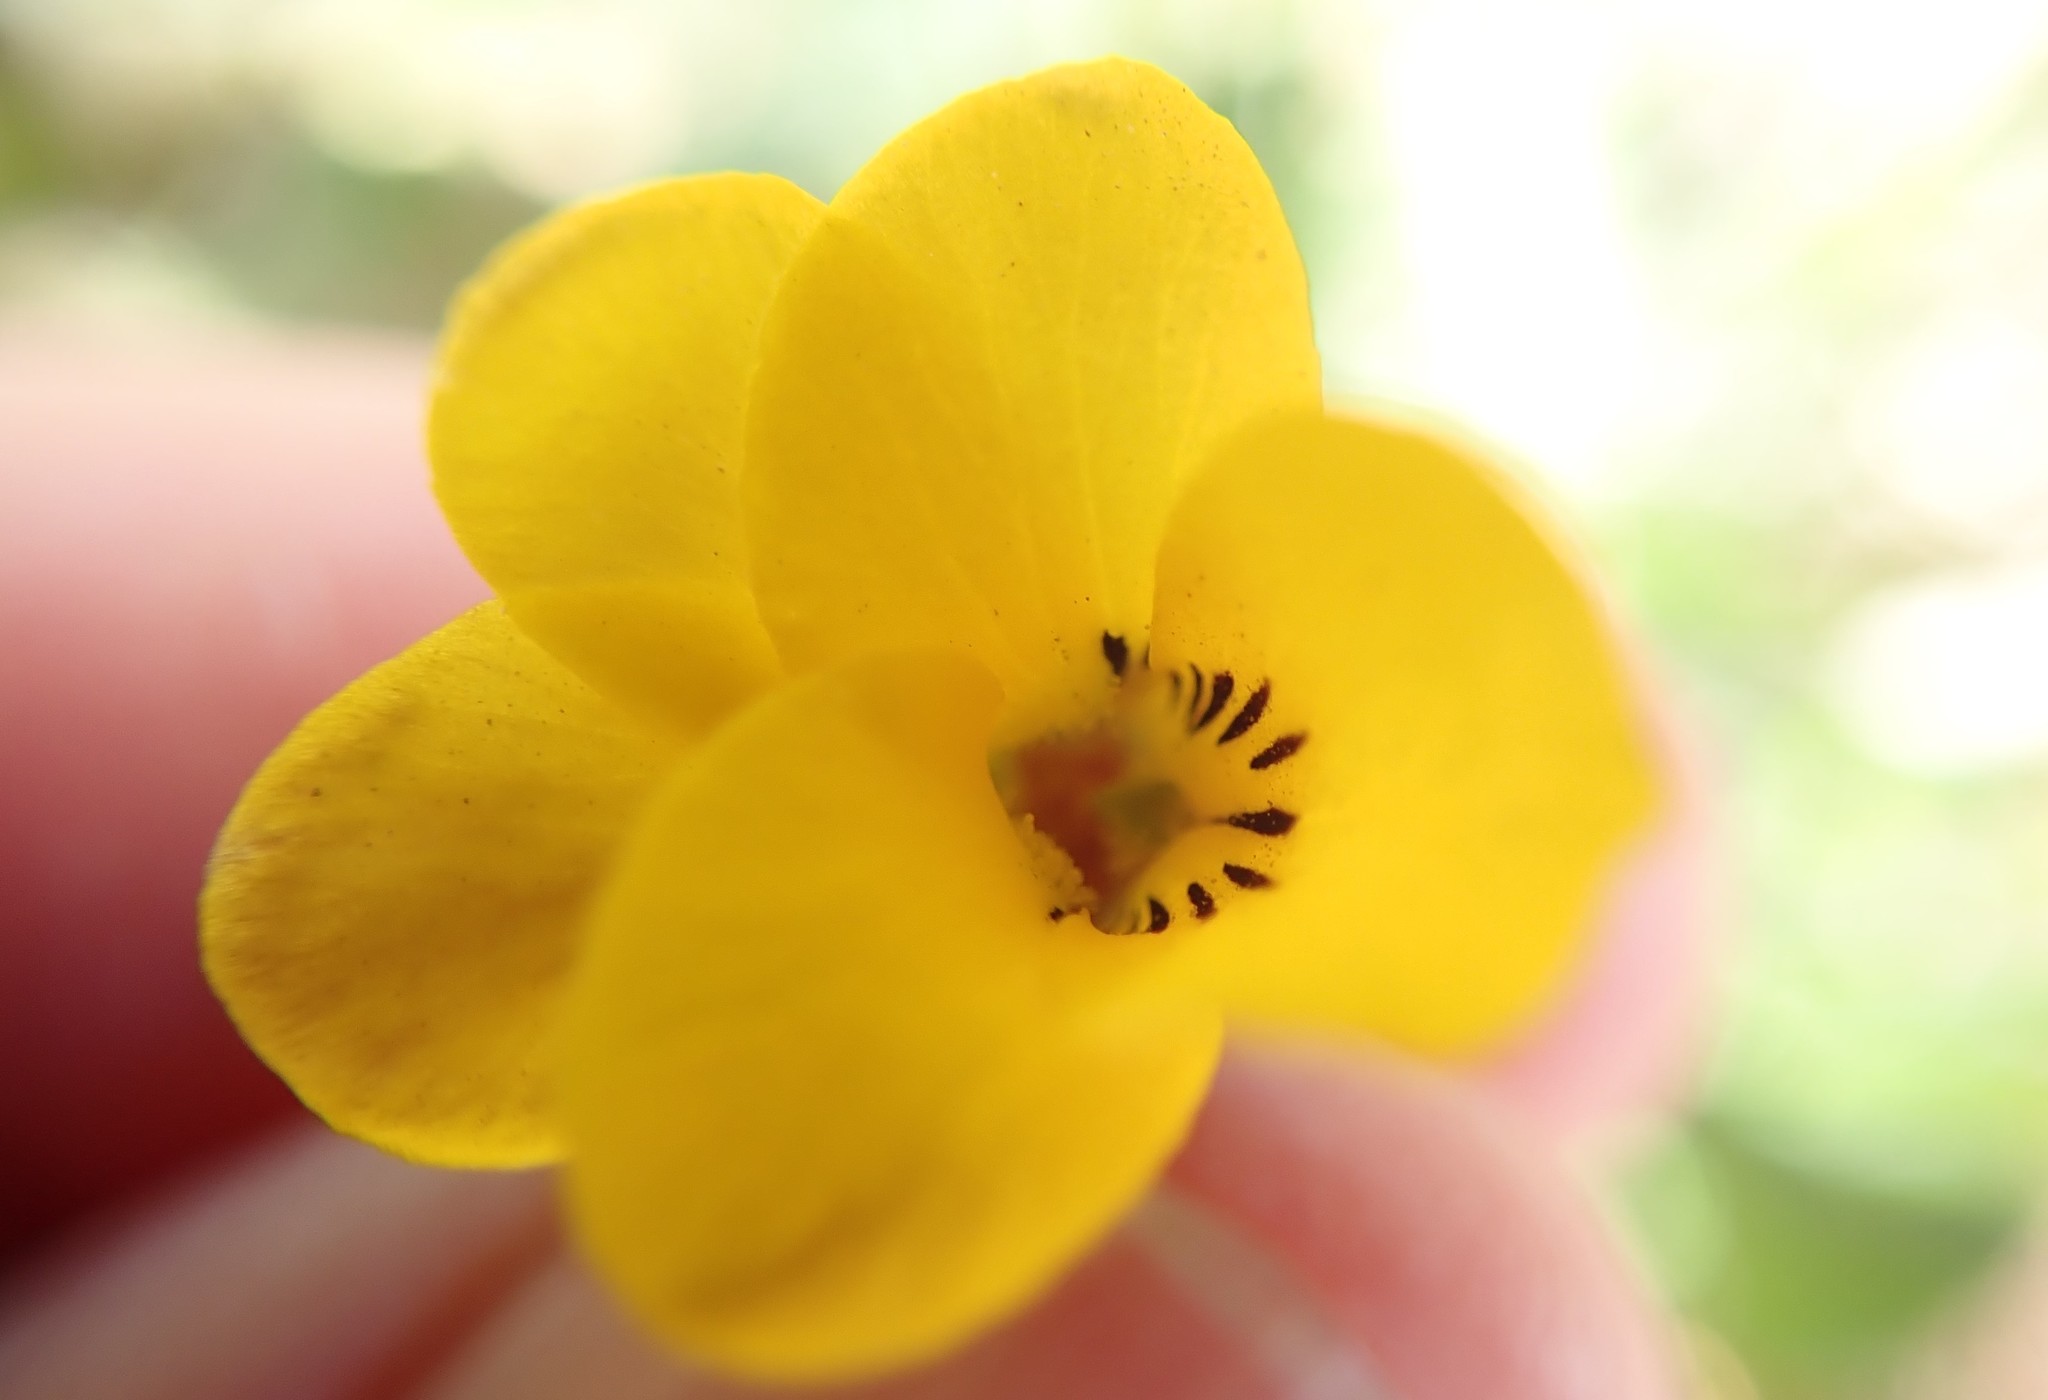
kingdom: Plantae
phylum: Tracheophyta
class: Magnoliopsida
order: Malpighiales
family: Violaceae
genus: Viola
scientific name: Viola pedunculata
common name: California golden violet
